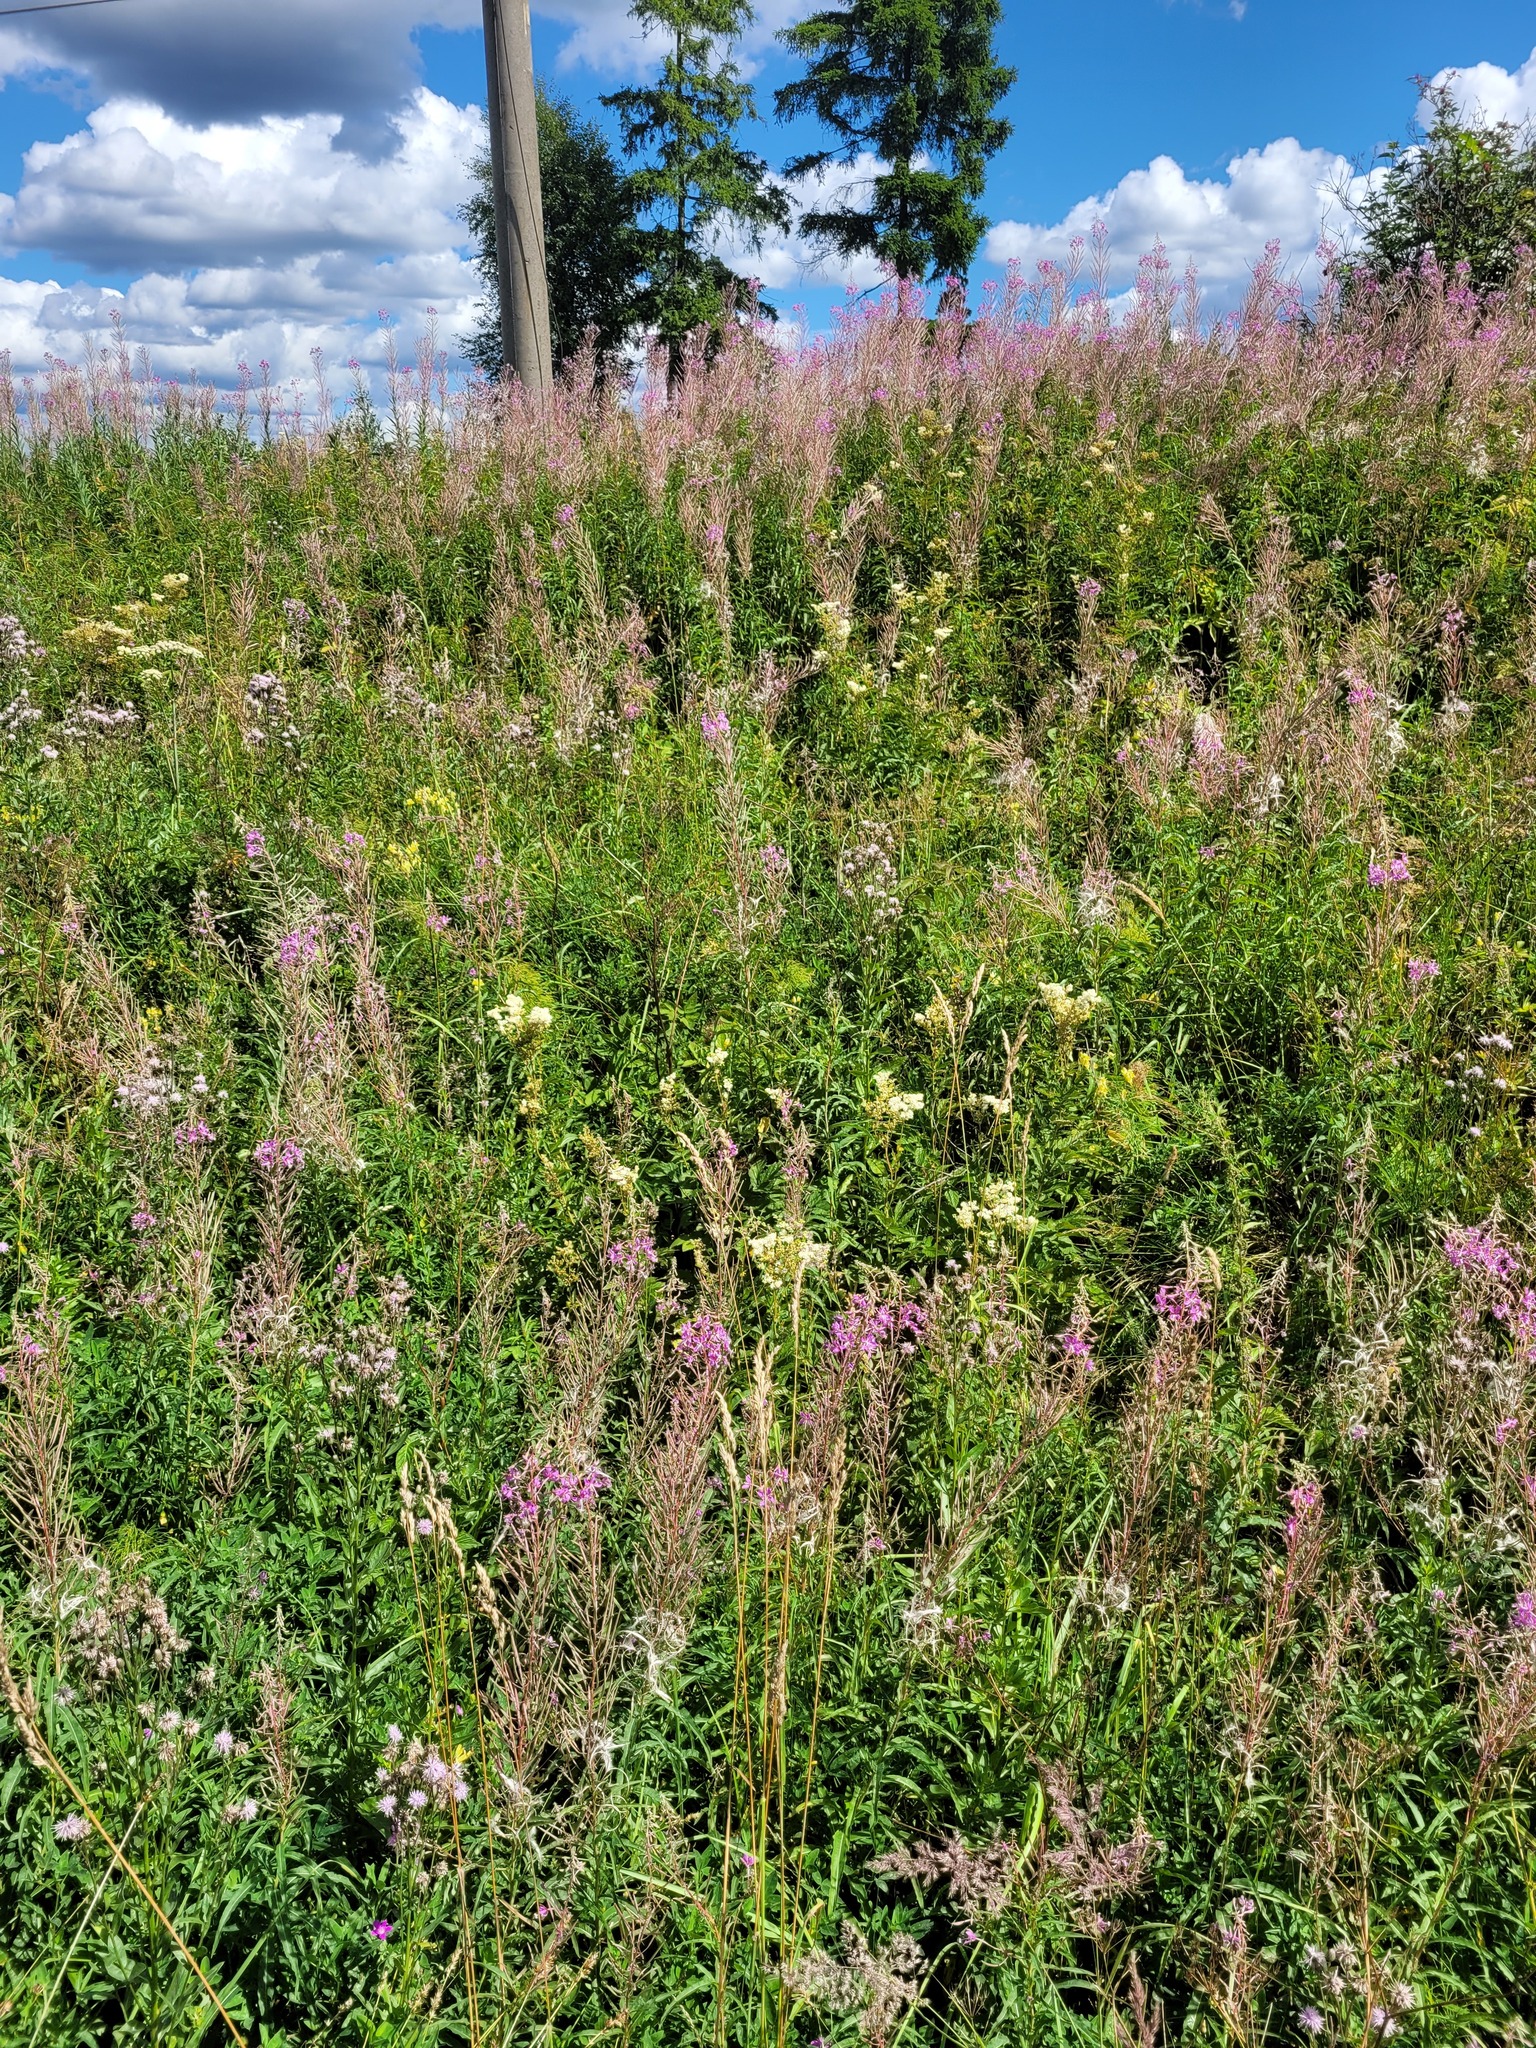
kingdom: Plantae
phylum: Tracheophyta
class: Magnoliopsida
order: Rosales
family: Rosaceae
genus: Filipendula
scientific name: Filipendula ulmaria
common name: Meadowsweet
